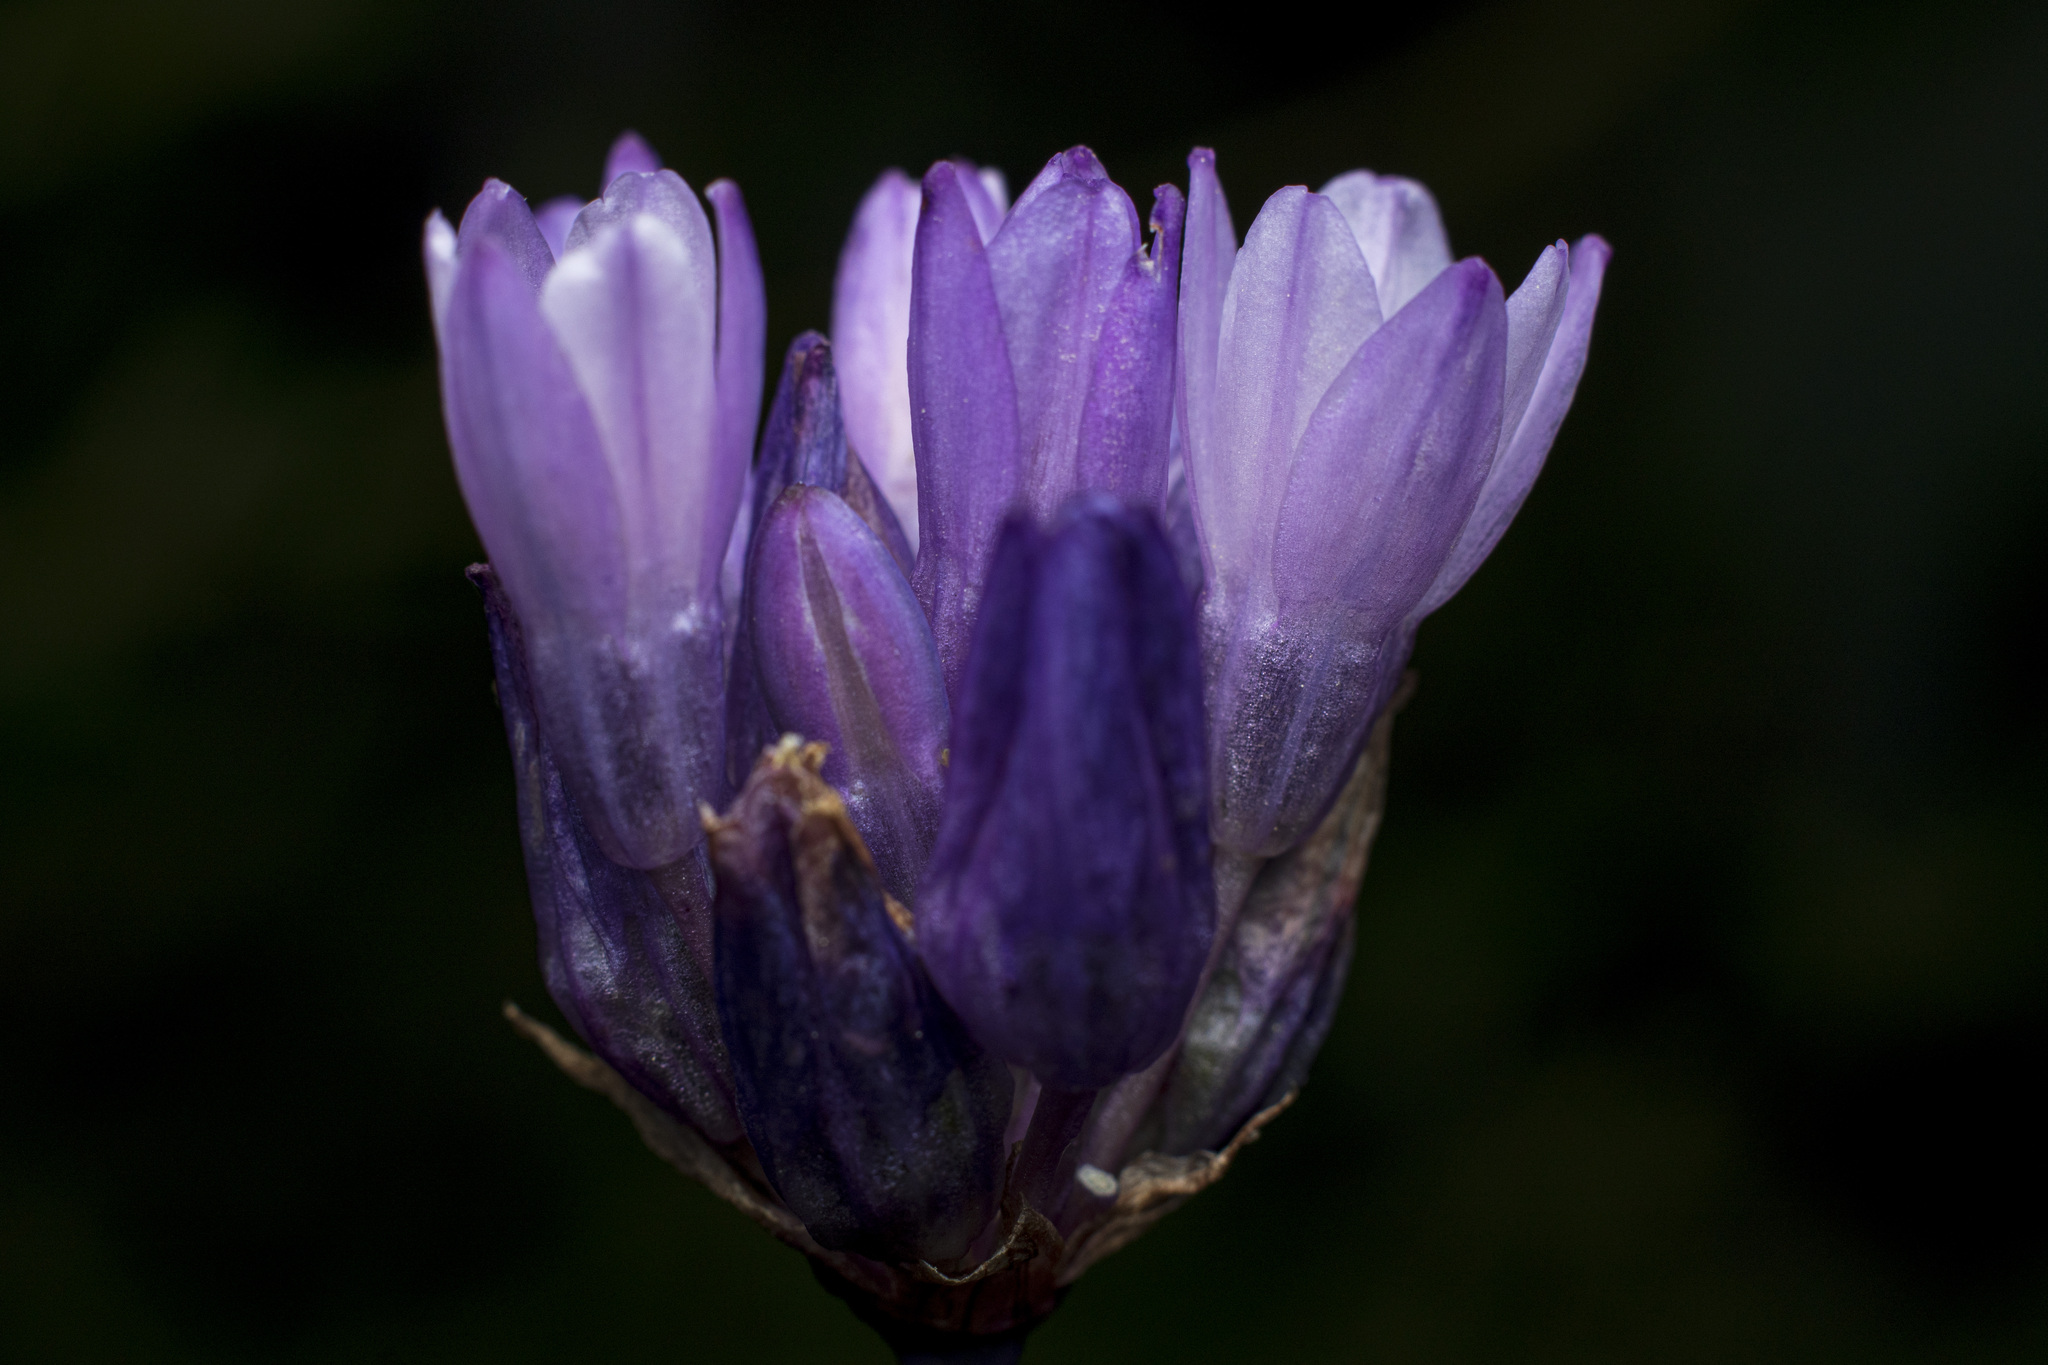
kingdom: Plantae
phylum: Tracheophyta
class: Liliopsida
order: Asparagales
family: Asparagaceae
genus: Dipterostemon
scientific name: Dipterostemon capitatus
